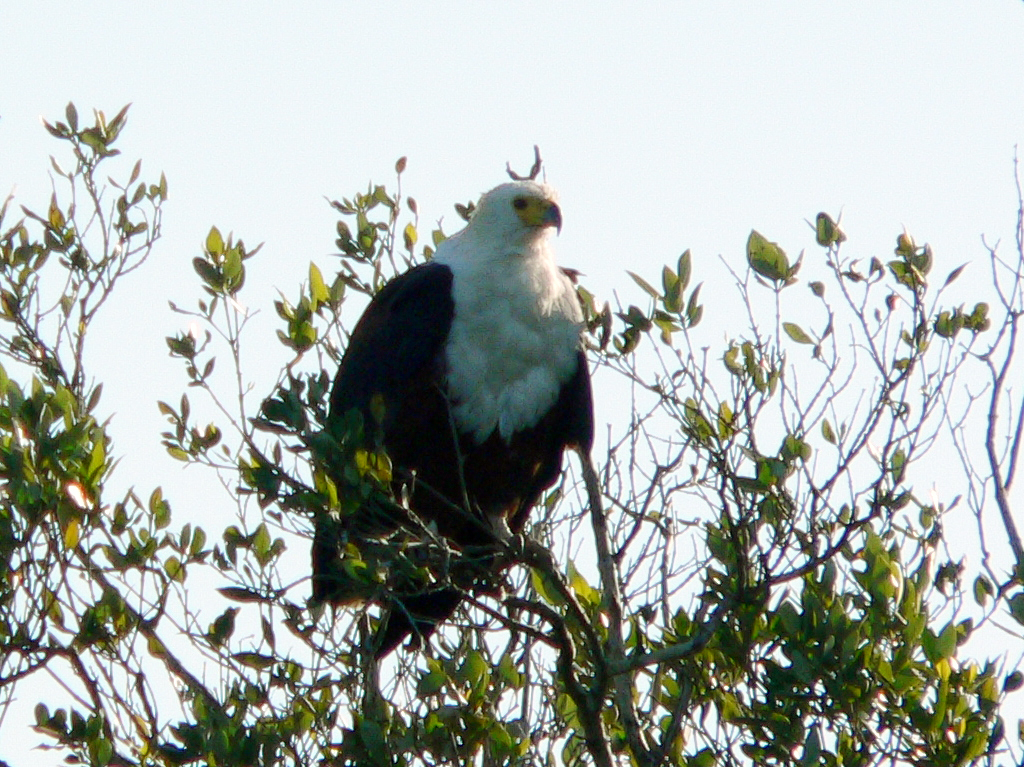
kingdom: Animalia
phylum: Chordata
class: Aves
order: Accipitriformes
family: Accipitridae
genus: Haliaeetus
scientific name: Haliaeetus vocifer
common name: African fish eagle
